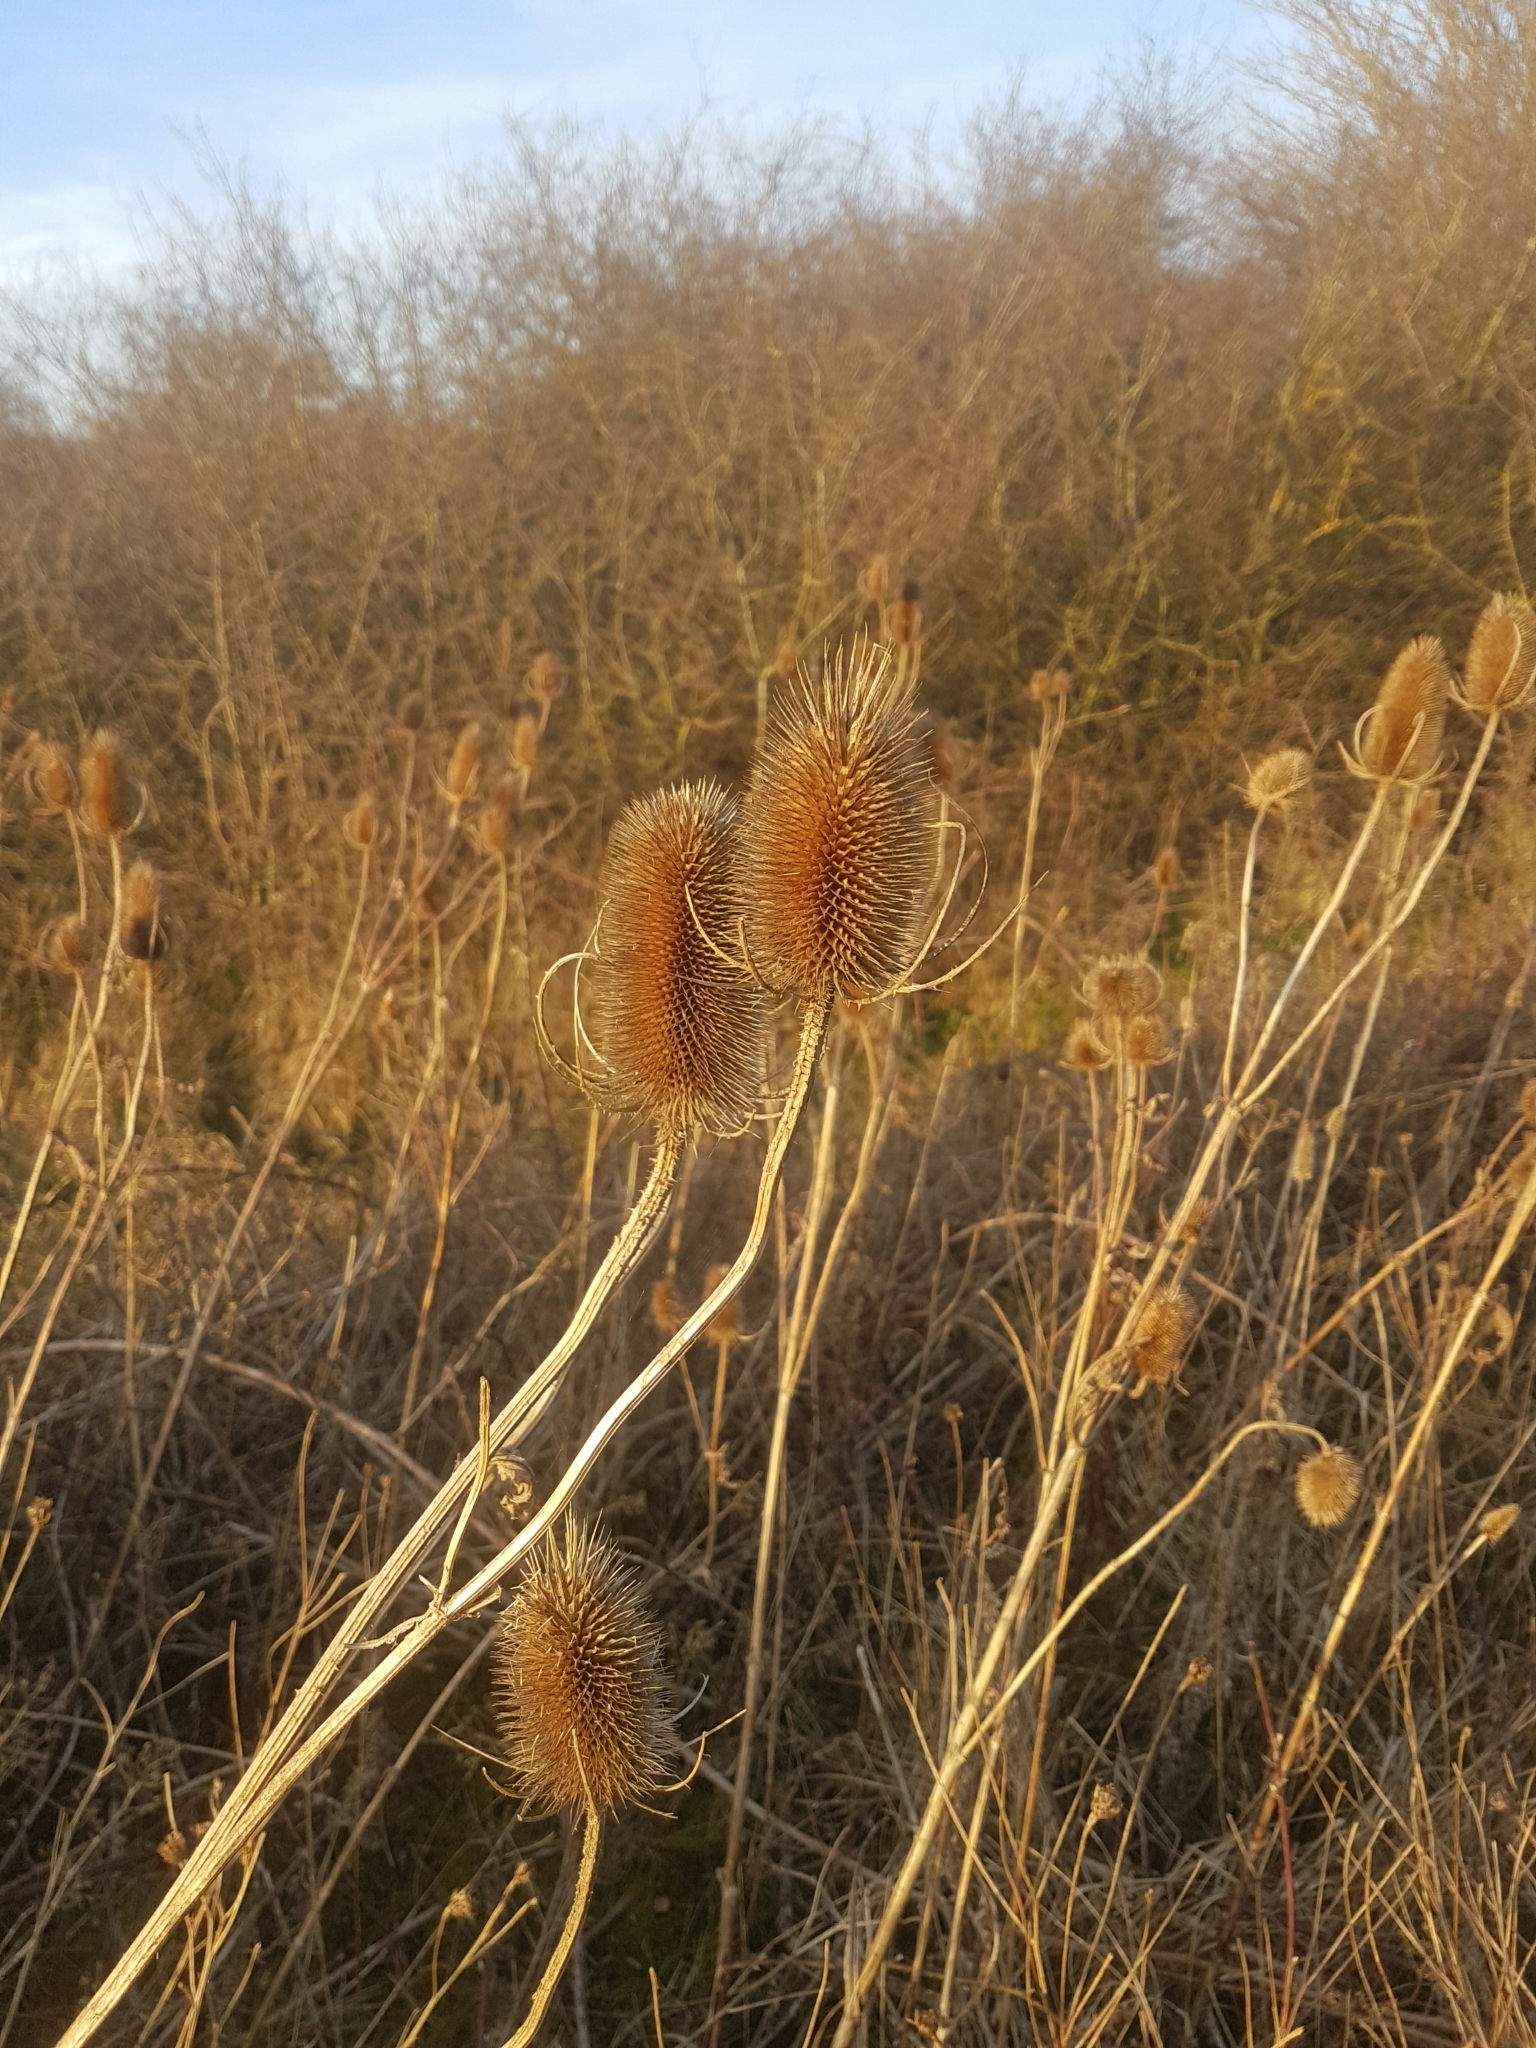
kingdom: Plantae
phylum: Tracheophyta
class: Magnoliopsida
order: Dipsacales
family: Caprifoliaceae
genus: Dipsacus
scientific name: Dipsacus fullonum
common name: Teasel
